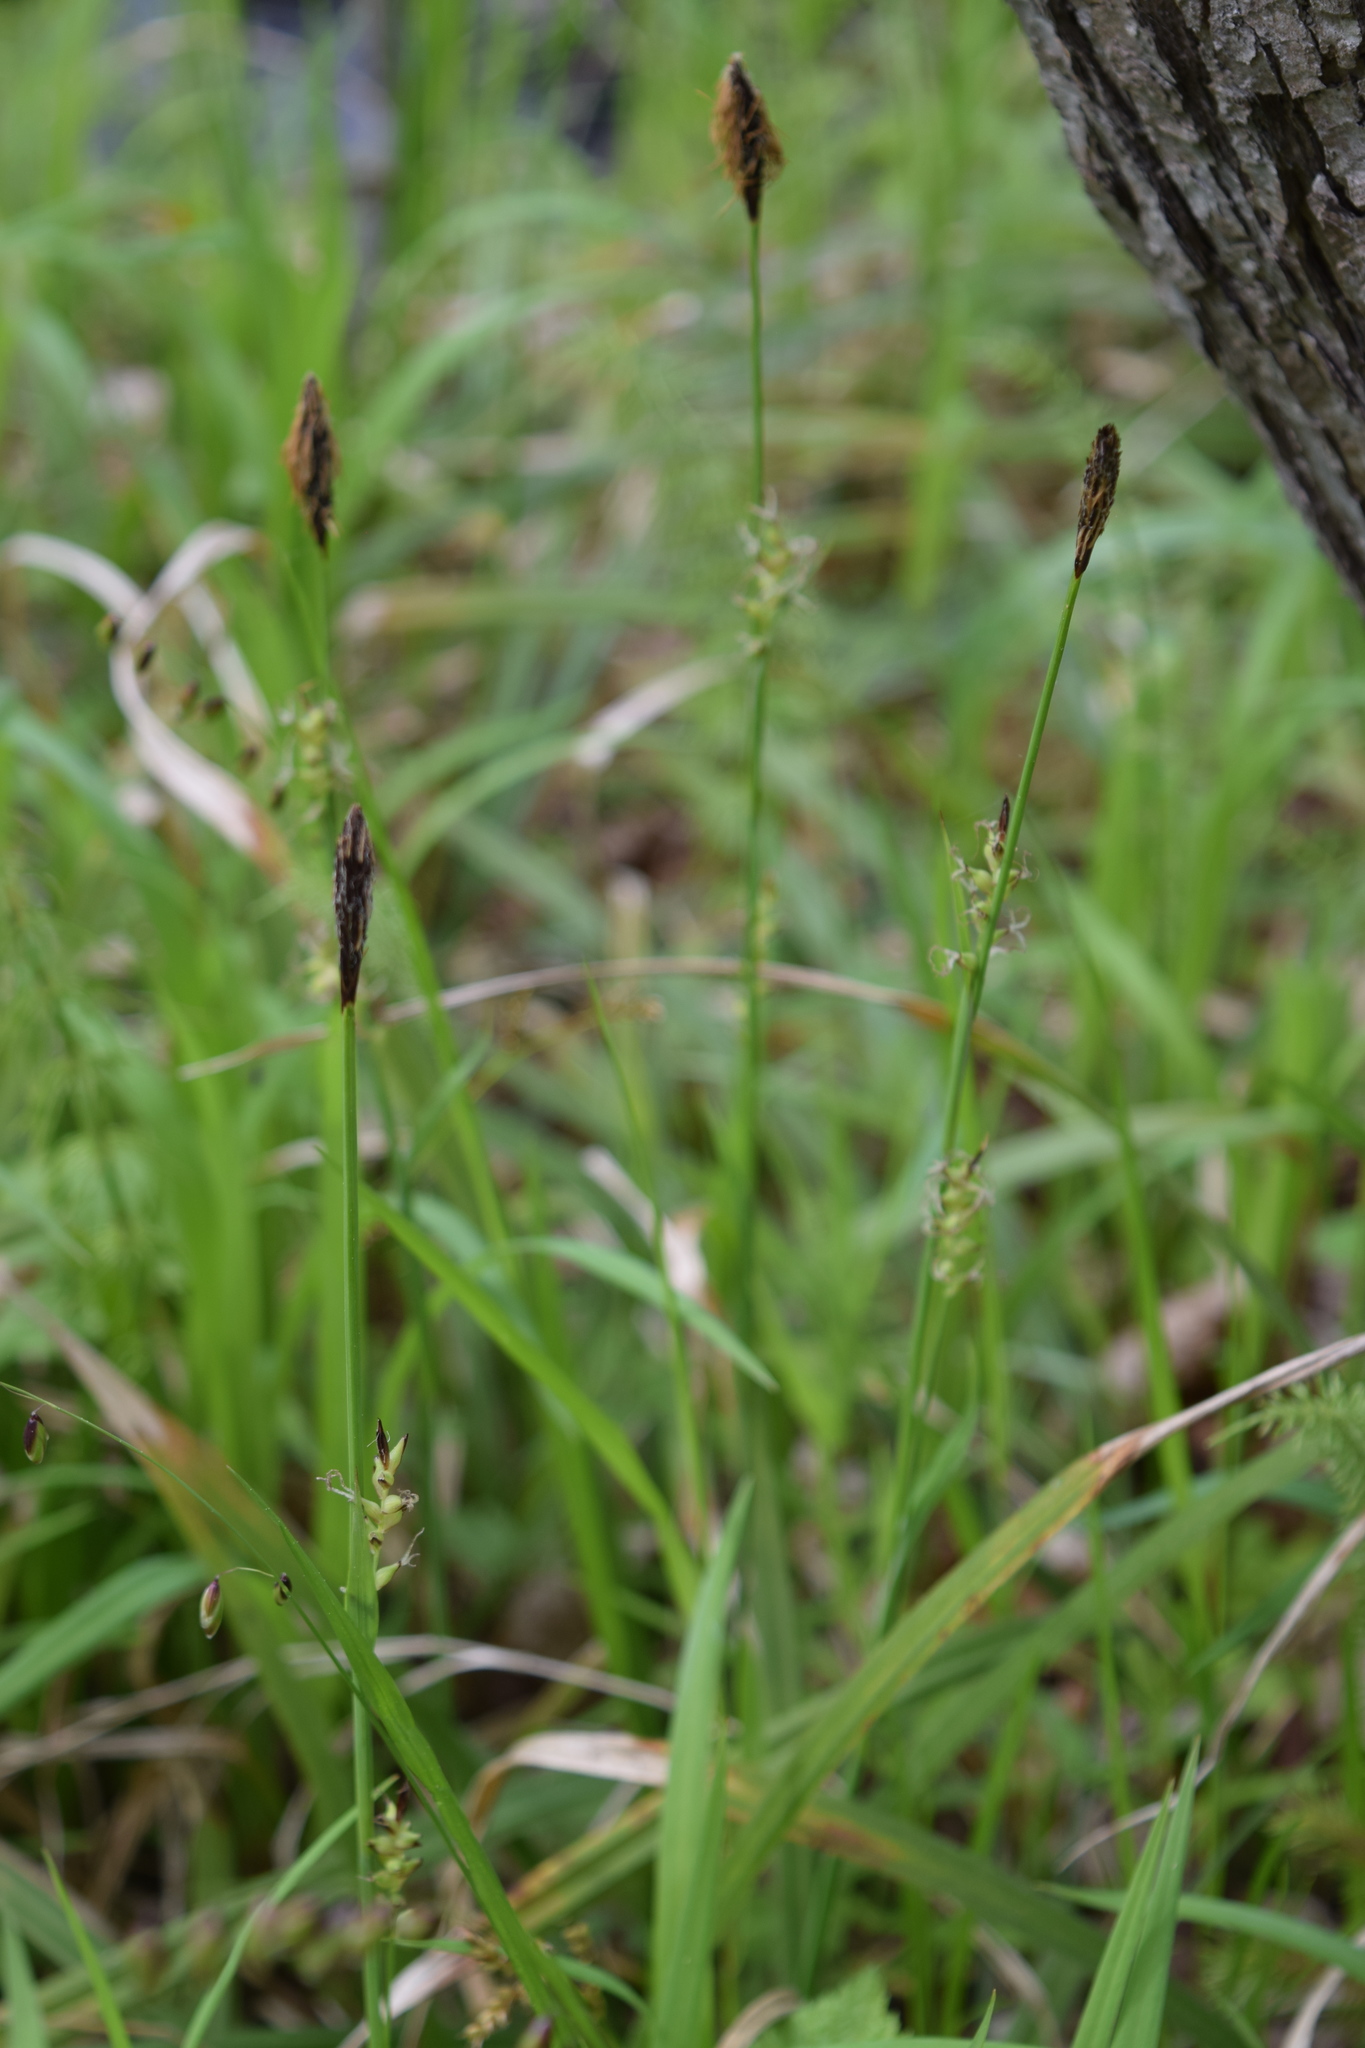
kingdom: Plantae
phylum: Tracheophyta
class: Liliopsida
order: Poales
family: Cyperaceae
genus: Carex
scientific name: Carex pilosa
